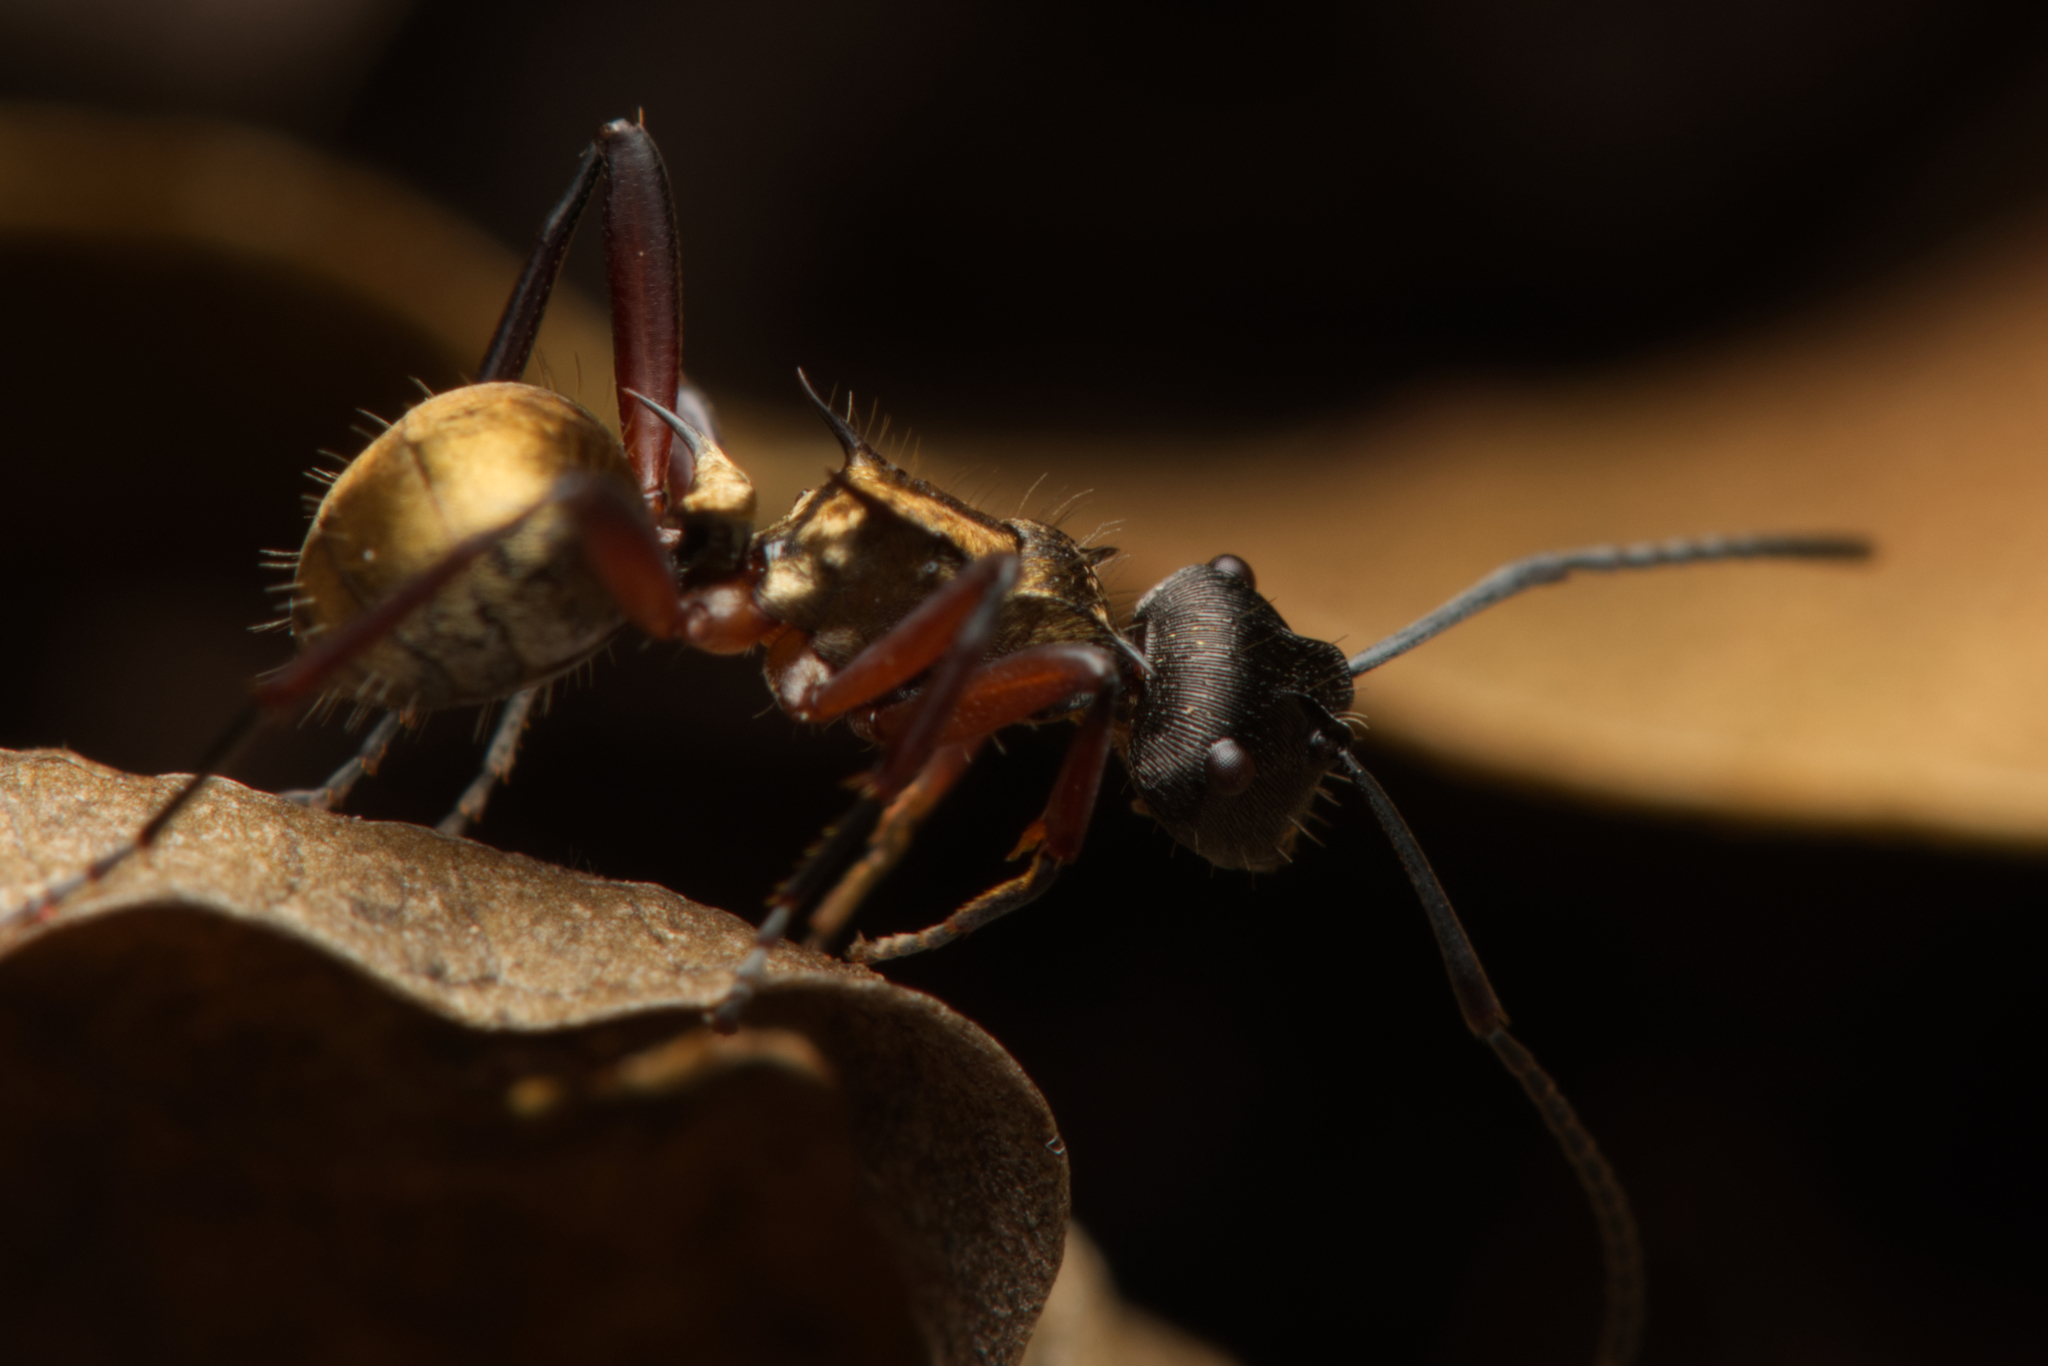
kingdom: Animalia
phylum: Arthropoda
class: Insecta
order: Hymenoptera
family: Formicidae
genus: Polyrhachis
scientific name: Polyrhachis rufifemur
